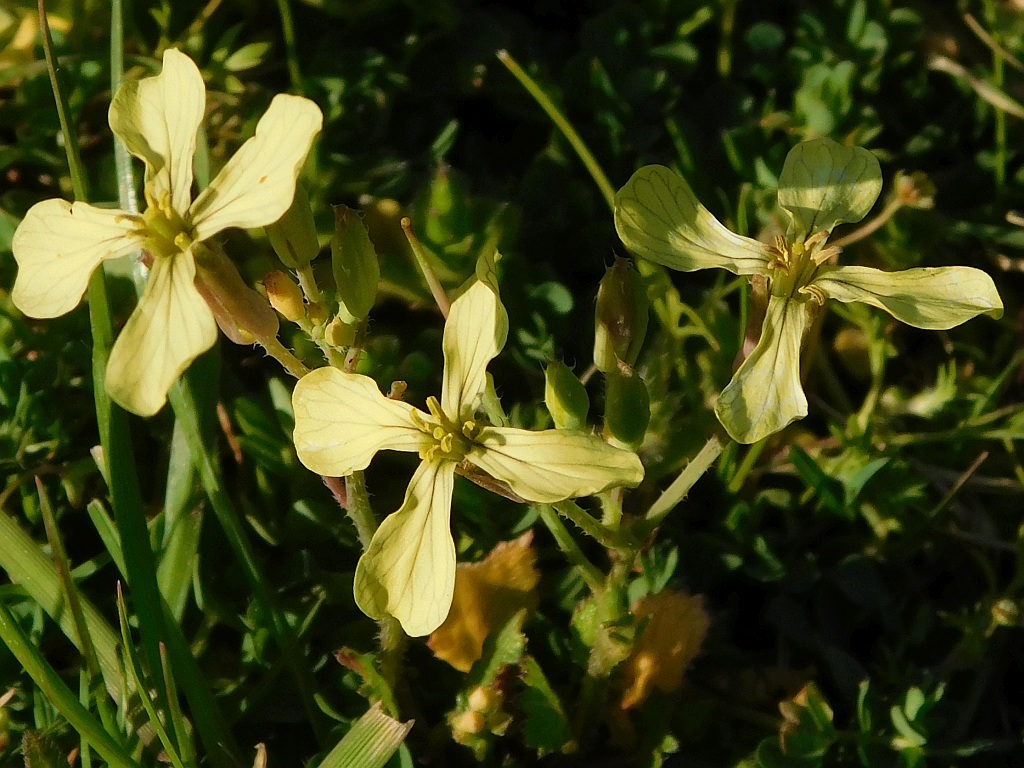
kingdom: Plantae
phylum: Tracheophyta
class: Magnoliopsida
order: Brassicales
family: Brassicaceae
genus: Raphanus
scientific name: Raphanus raphanistrum
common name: Wild radish
